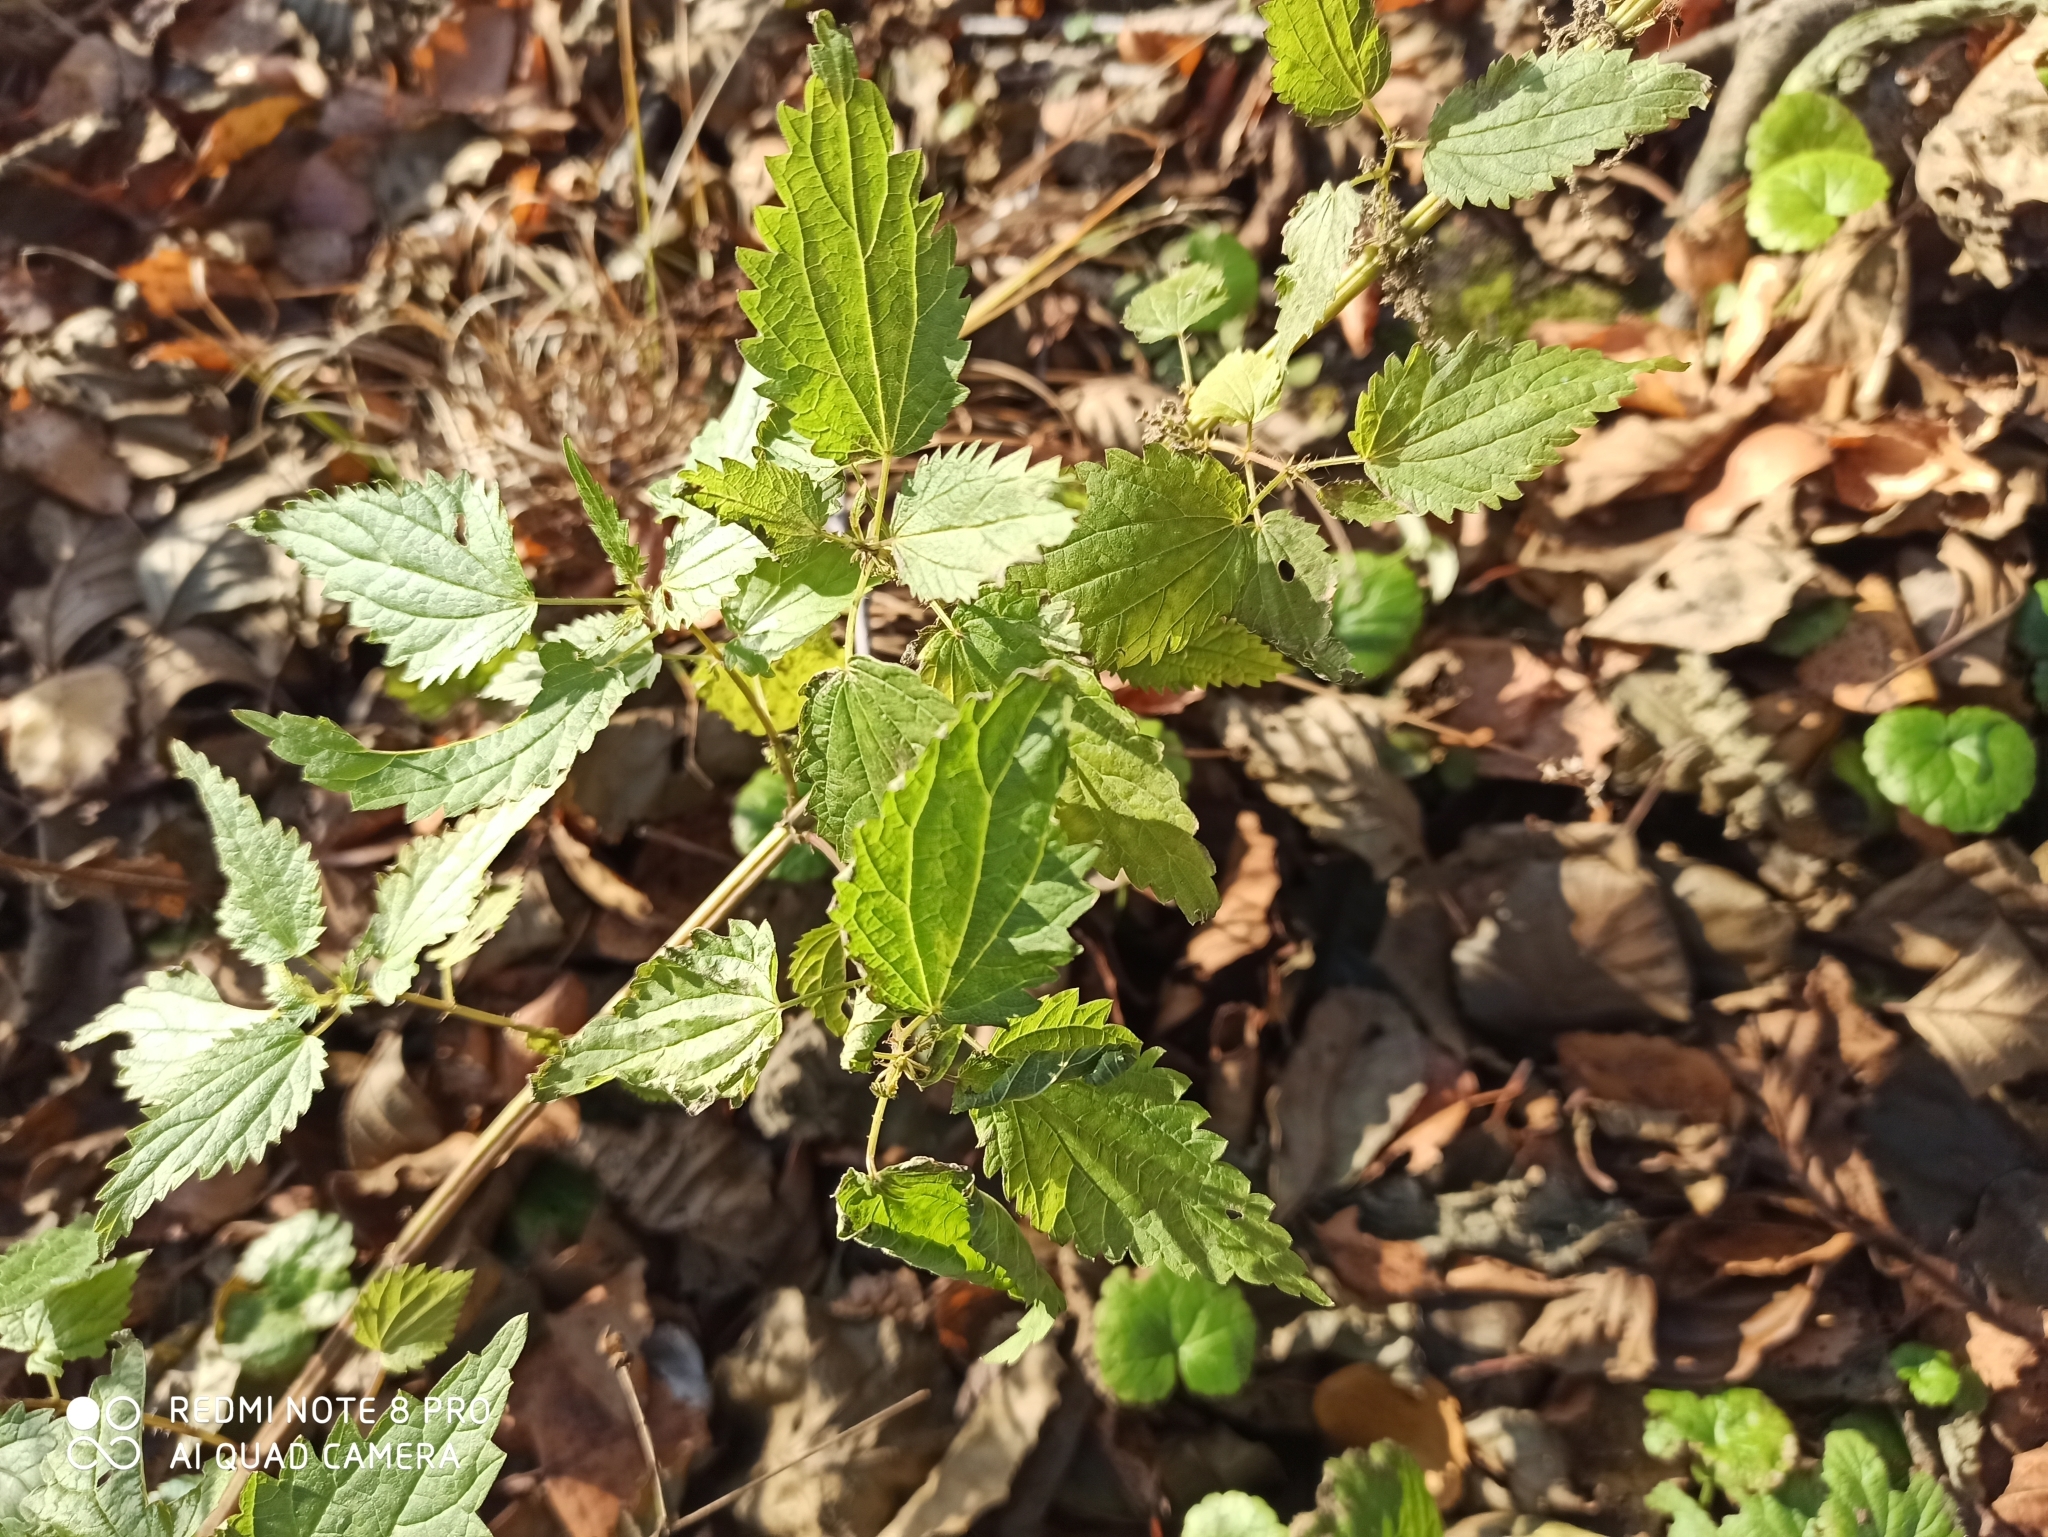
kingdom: Plantae
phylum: Tracheophyta
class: Magnoliopsida
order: Rosales
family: Urticaceae
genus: Urtica
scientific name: Urtica dioica
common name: Common nettle
